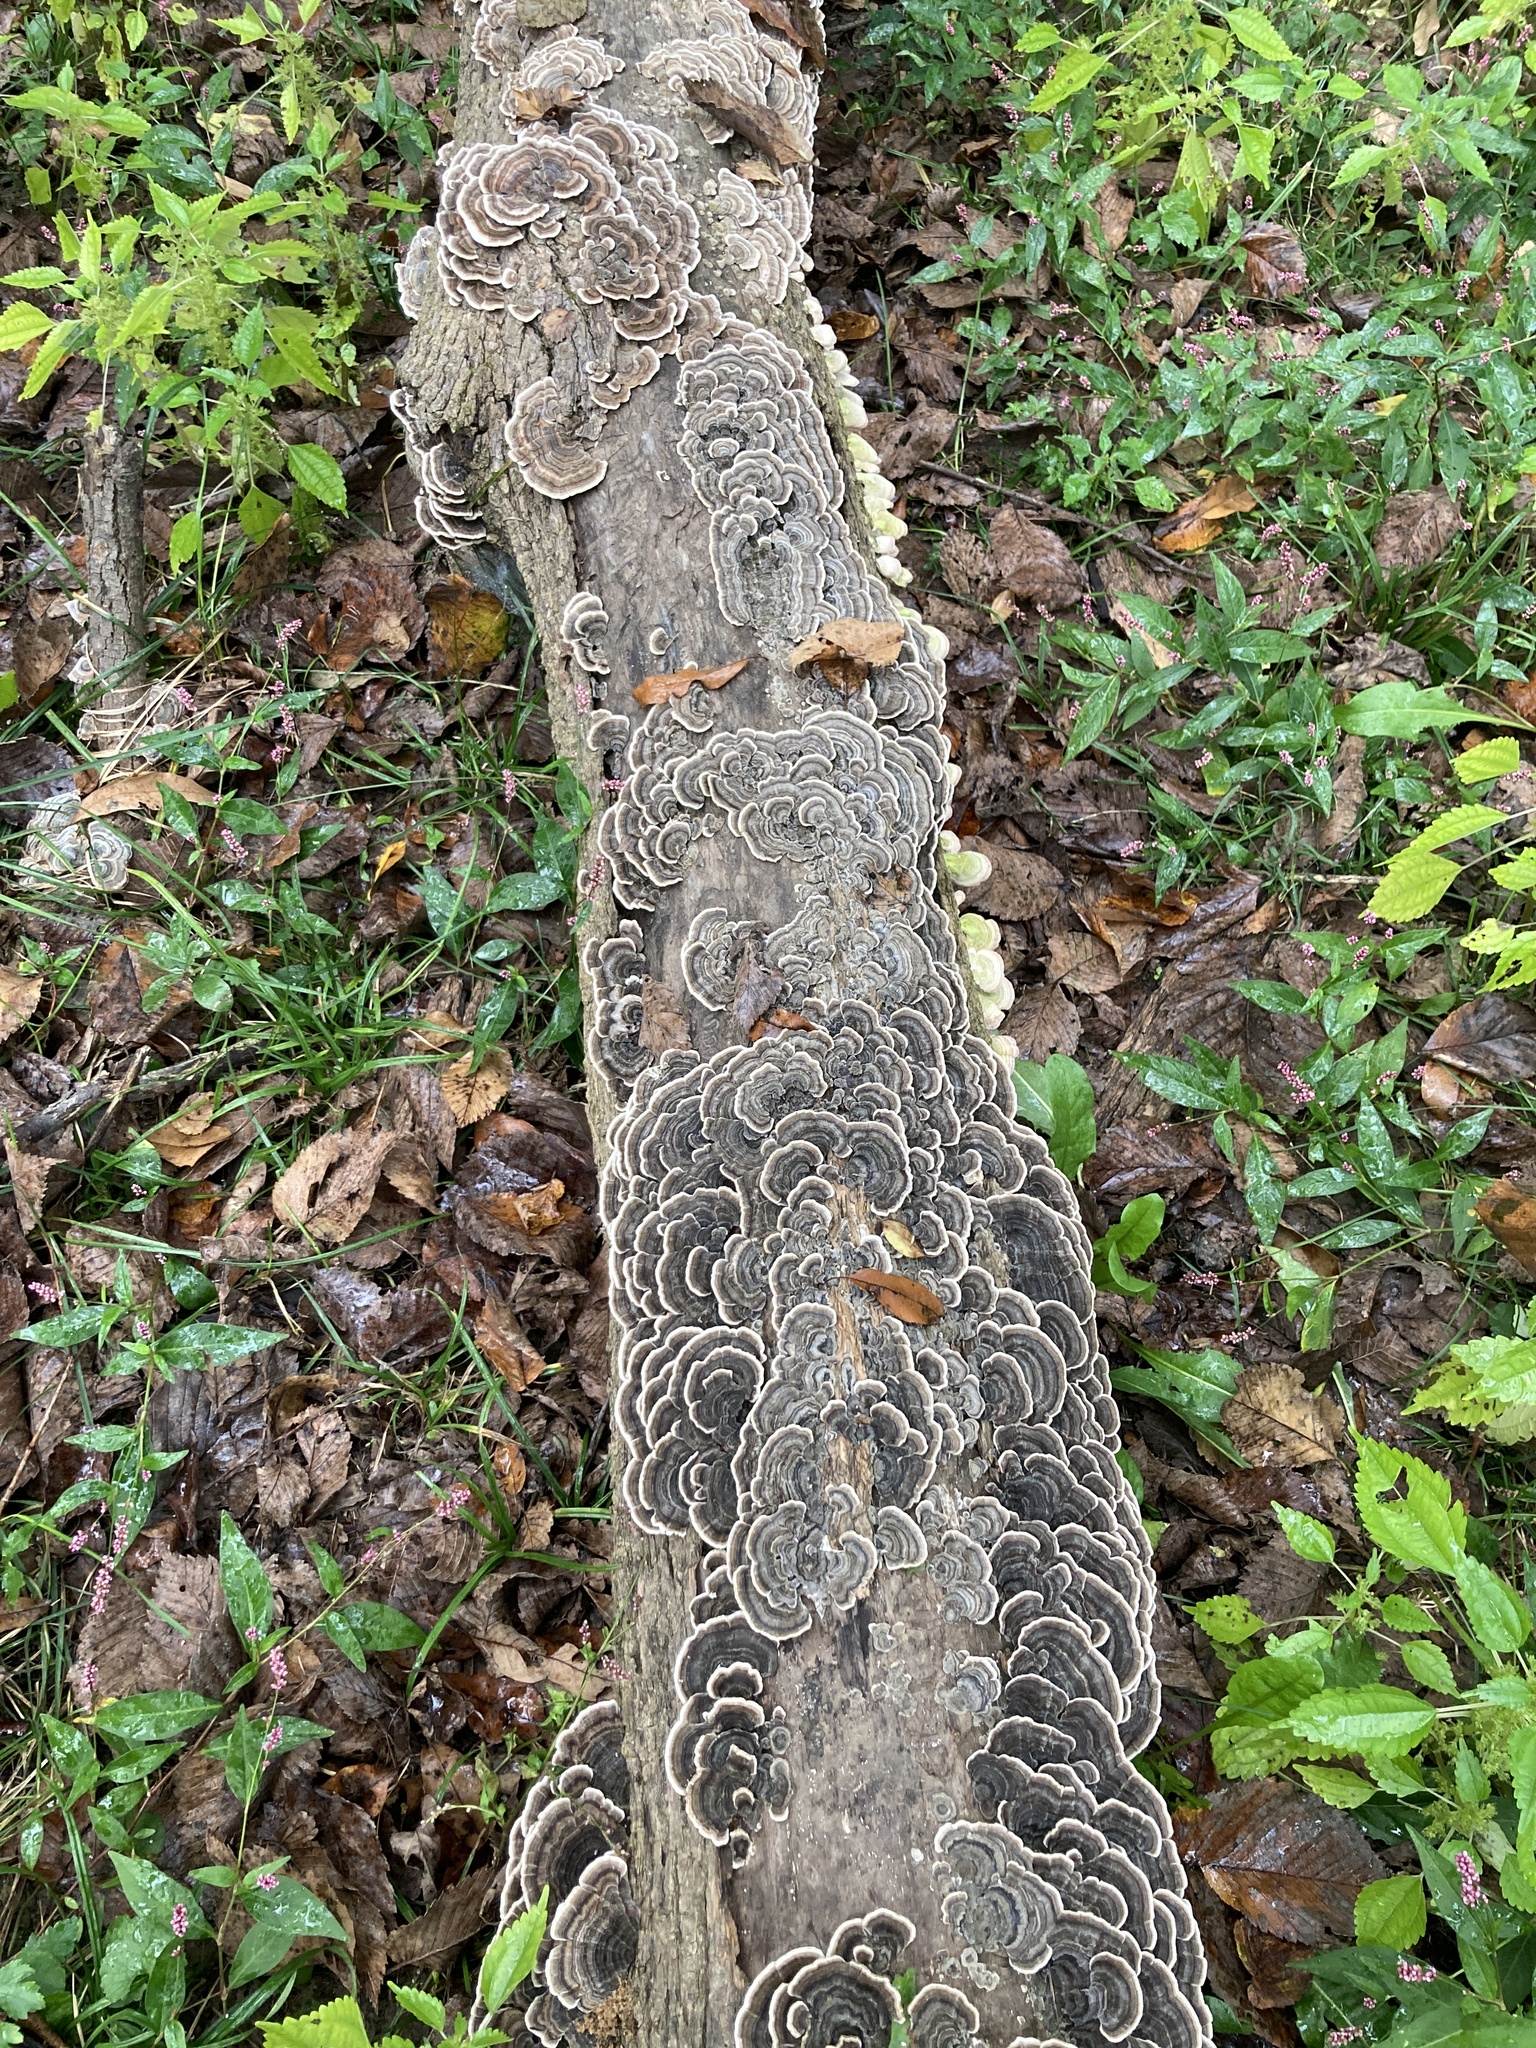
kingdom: Fungi
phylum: Basidiomycota
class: Agaricomycetes
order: Polyporales
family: Polyporaceae
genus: Trametes
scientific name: Trametes versicolor
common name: Turkeytail
